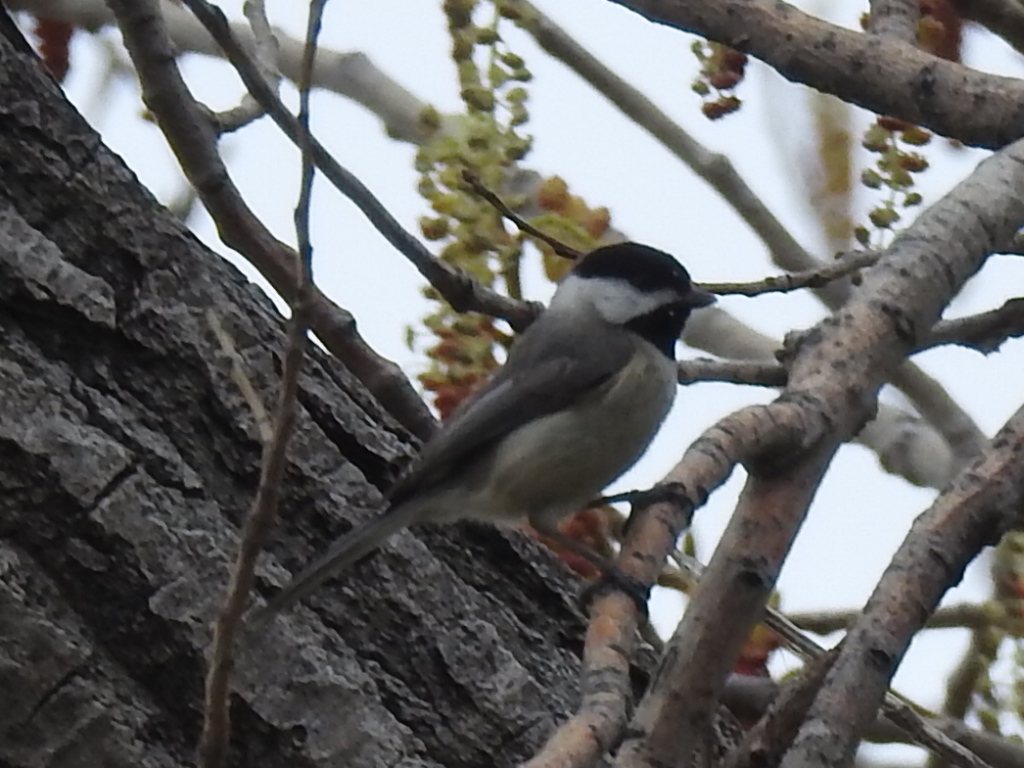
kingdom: Animalia
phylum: Chordata
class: Aves
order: Passeriformes
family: Paridae
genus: Poecile
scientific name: Poecile carolinensis
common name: Carolina chickadee
